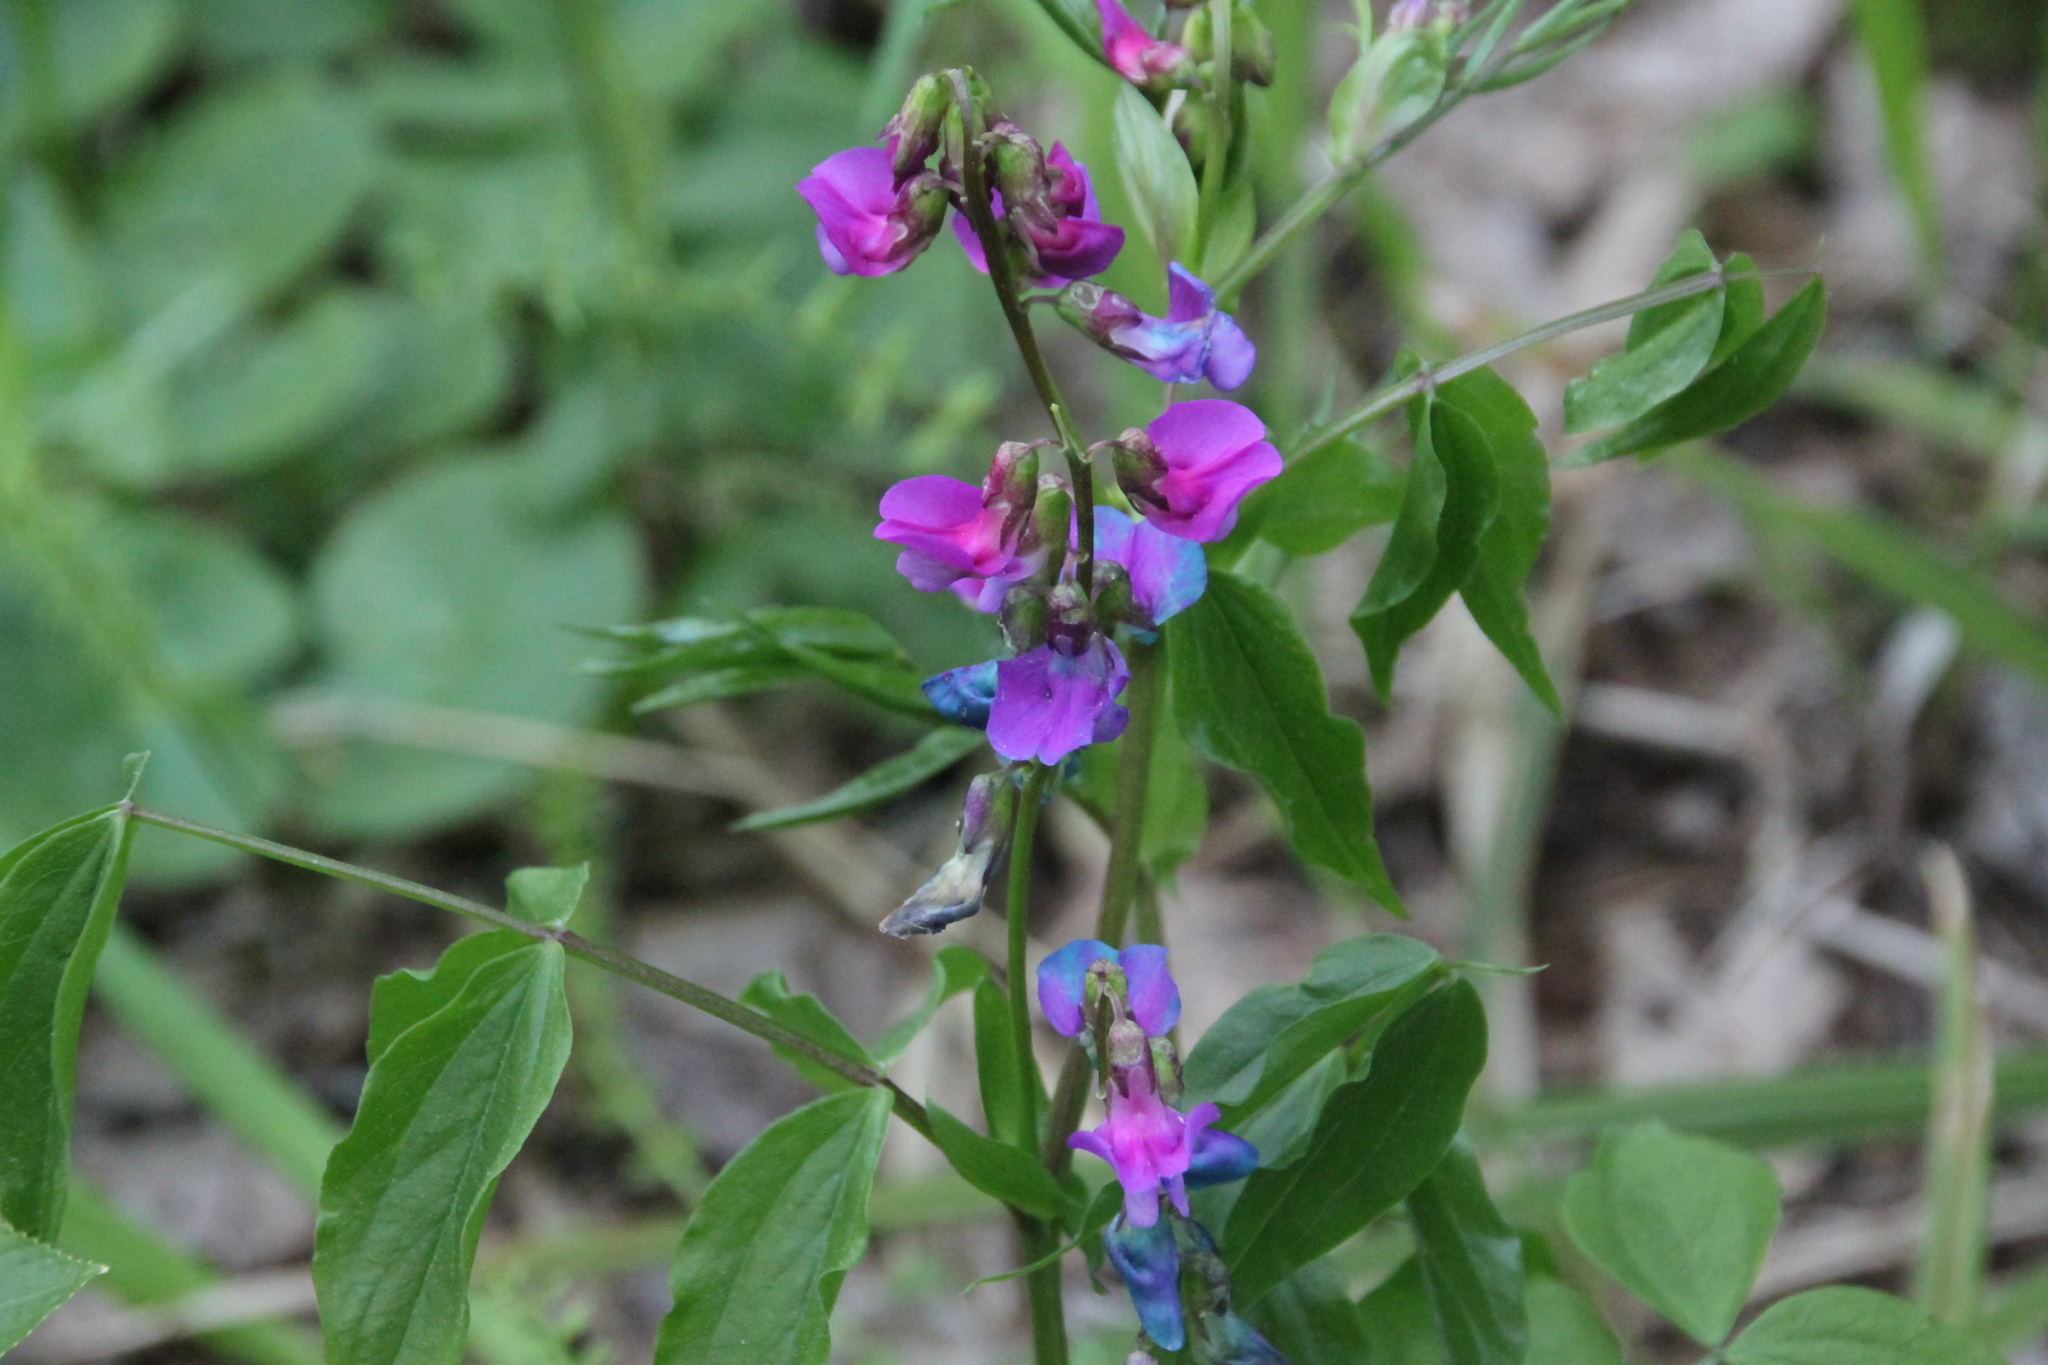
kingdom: Plantae
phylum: Tracheophyta
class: Magnoliopsida
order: Fabales
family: Fabaceae
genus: Lathyrus
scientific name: Lathyrus vernus
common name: Spring pea
